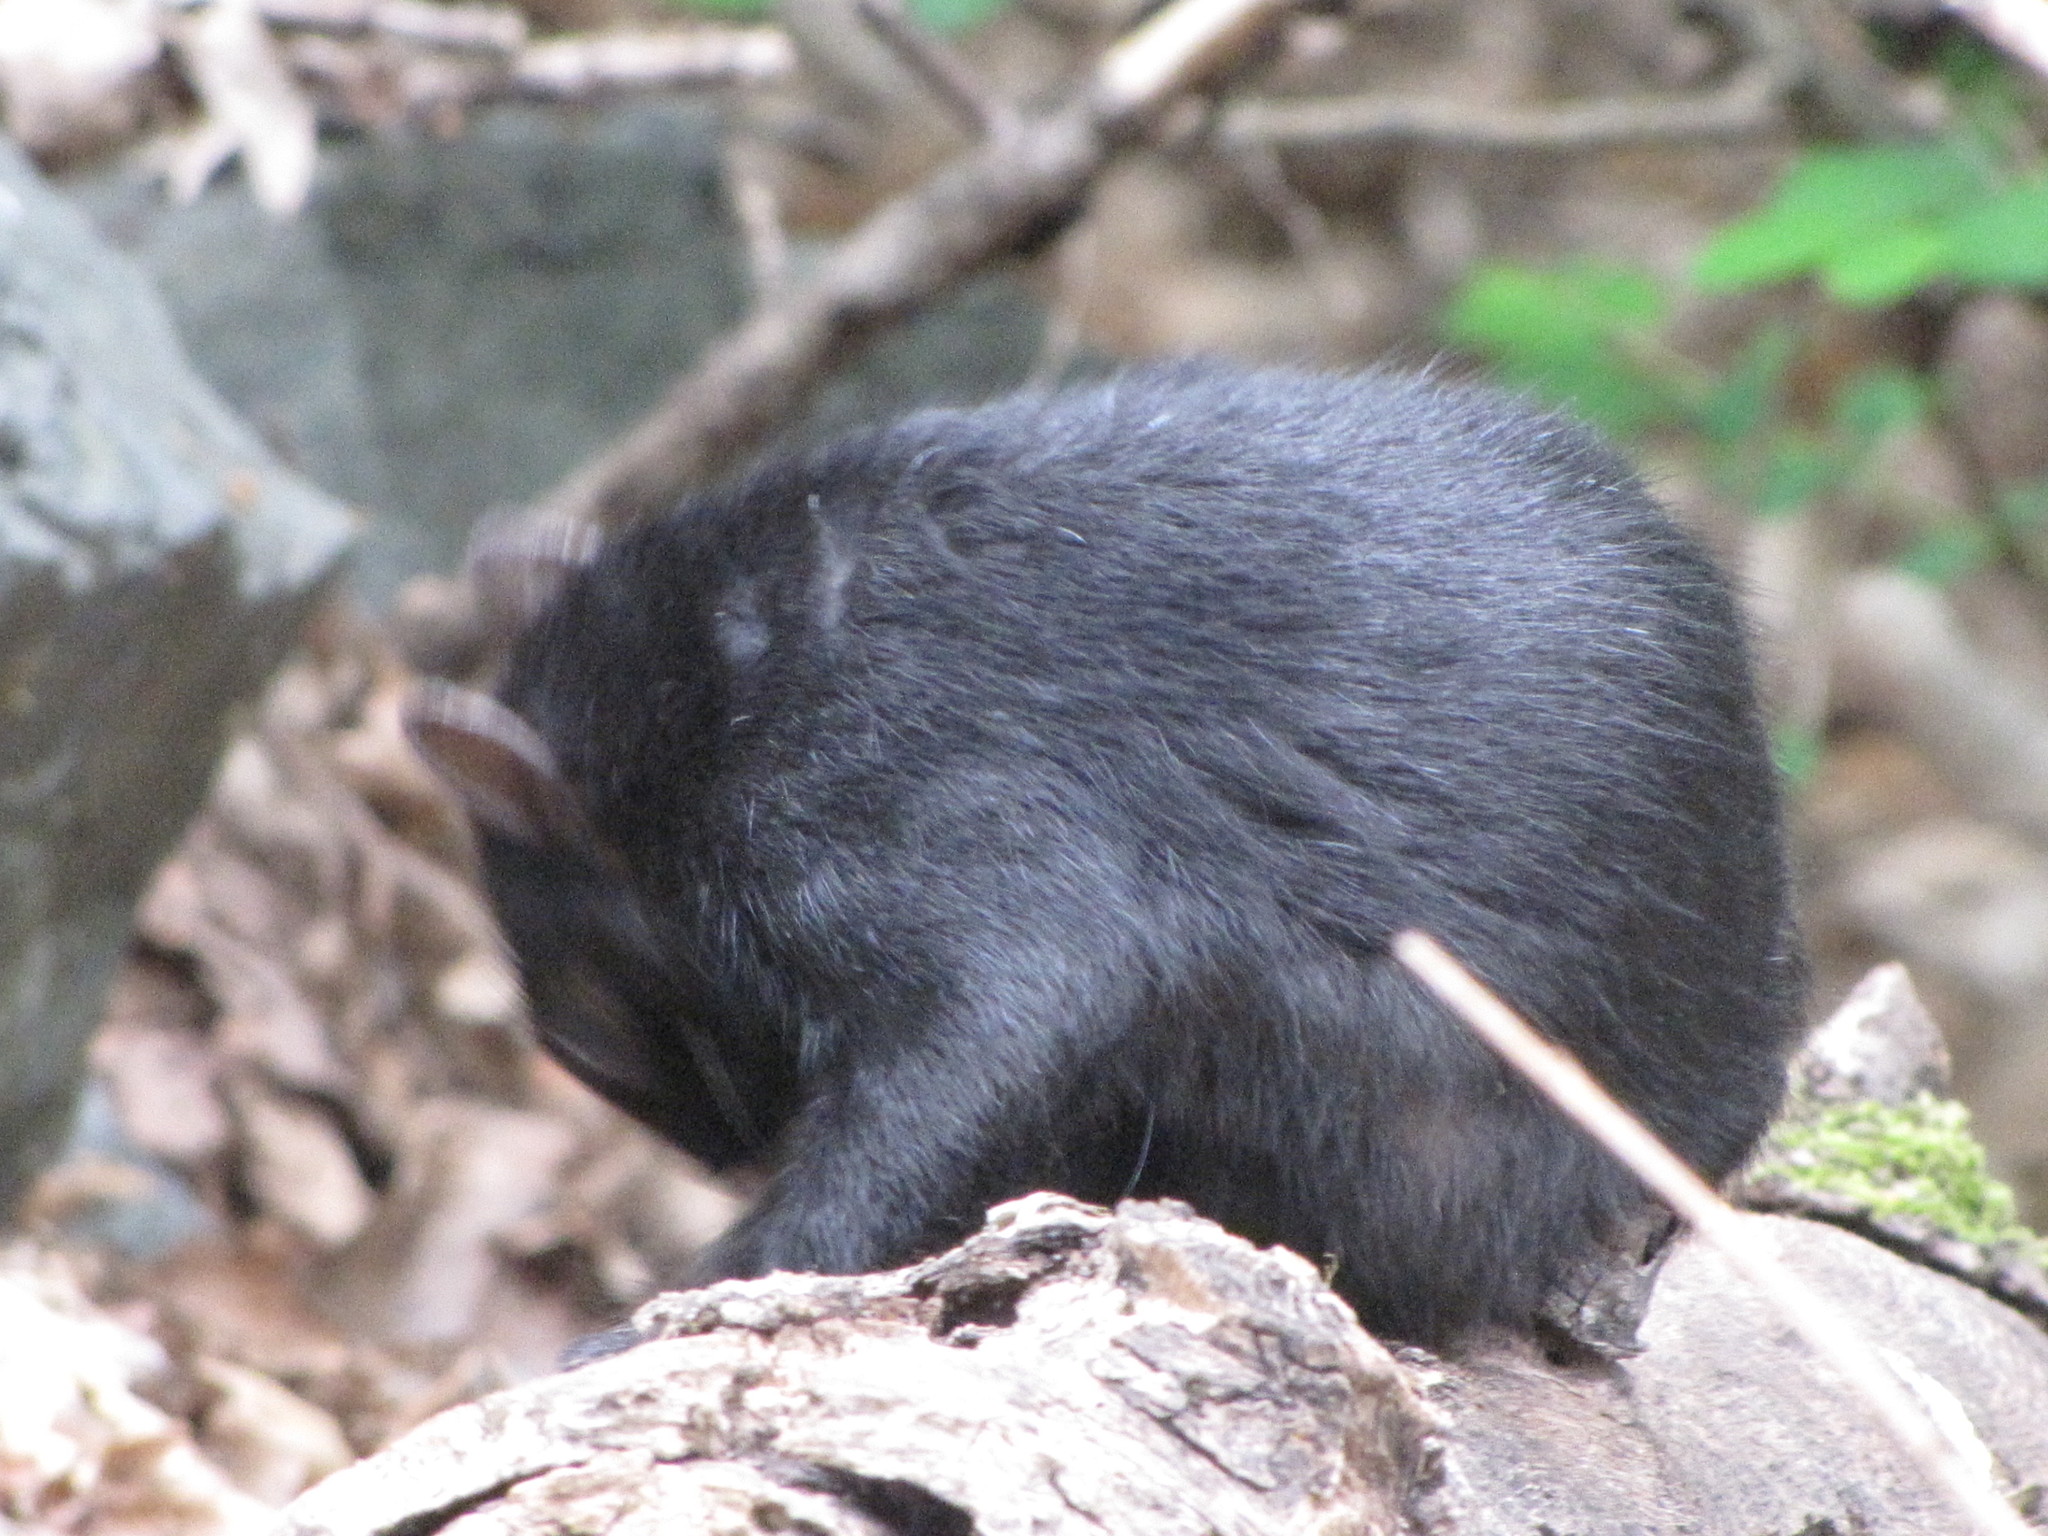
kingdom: Animalia
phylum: Chordata
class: Mammalia
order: Rodentia
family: Sciuridae
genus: Sciurus
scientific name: Sciurus carolinensis
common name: Eastern gray squirrel
